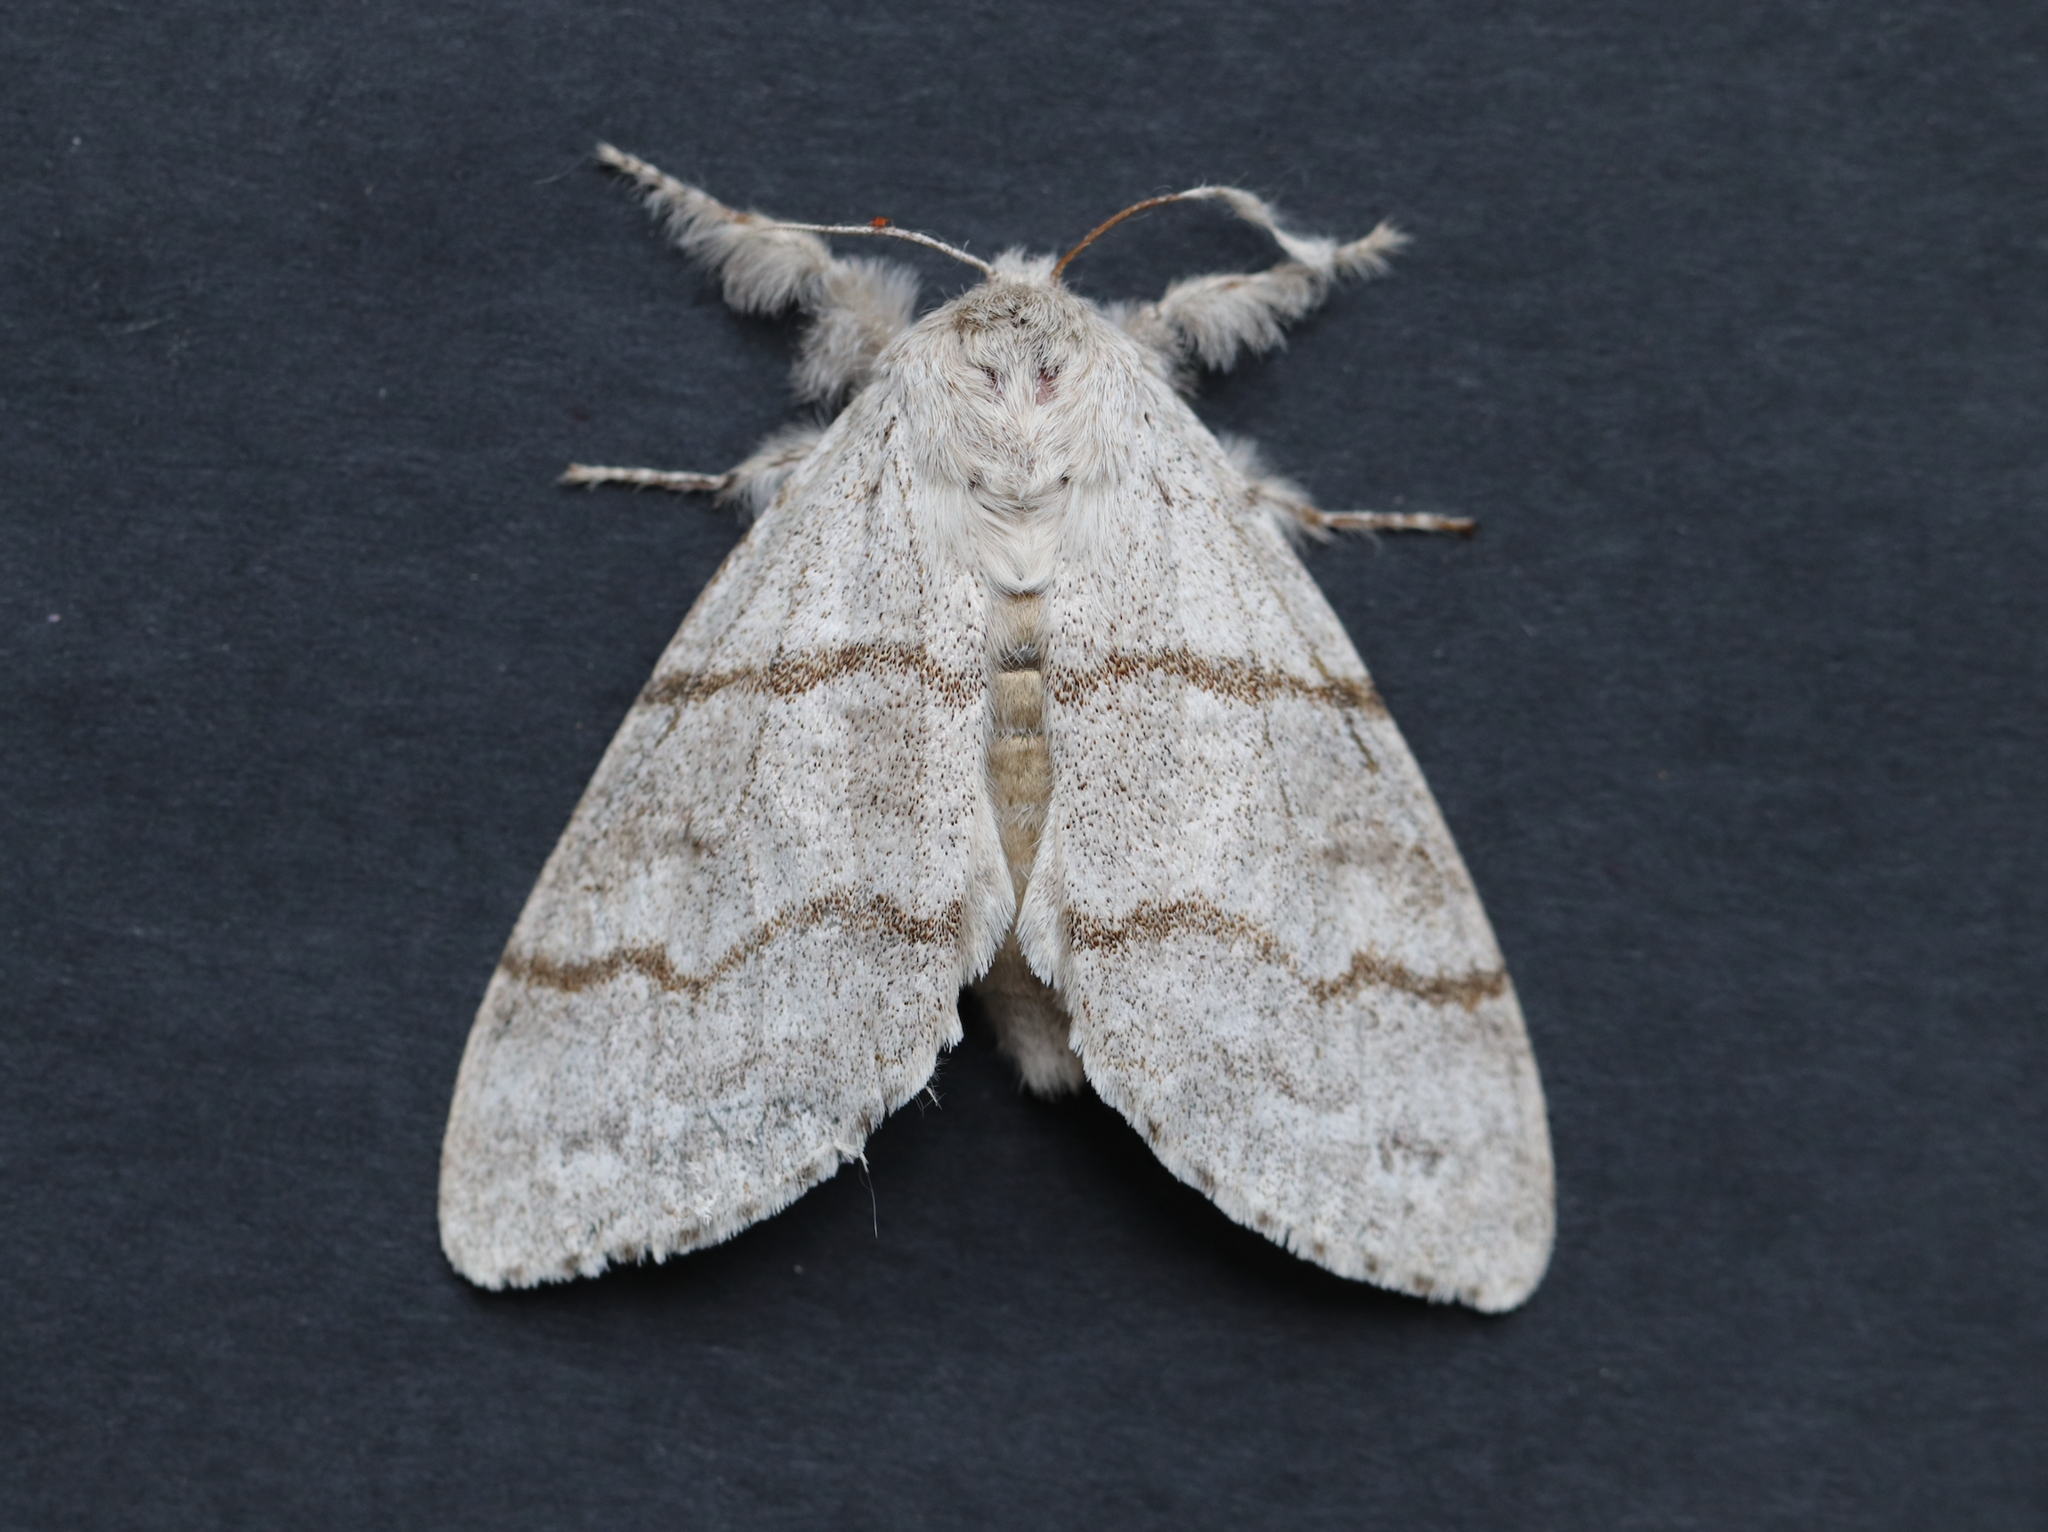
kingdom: Animalia
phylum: Arthropoda
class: Insecta
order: Lepidoptera
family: Erebidae
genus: Calliteara
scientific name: Calliteara pudibunda
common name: Pale tussock
